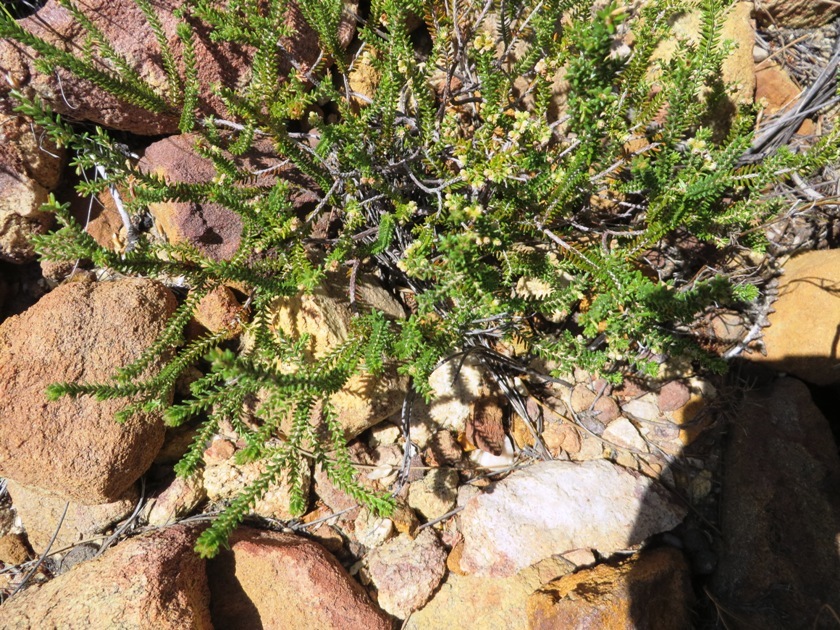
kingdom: Plantae
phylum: Tracheophyta
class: Magnoliopsida
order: Ericales
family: Ericaceae
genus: Erica
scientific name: Erica serrata
